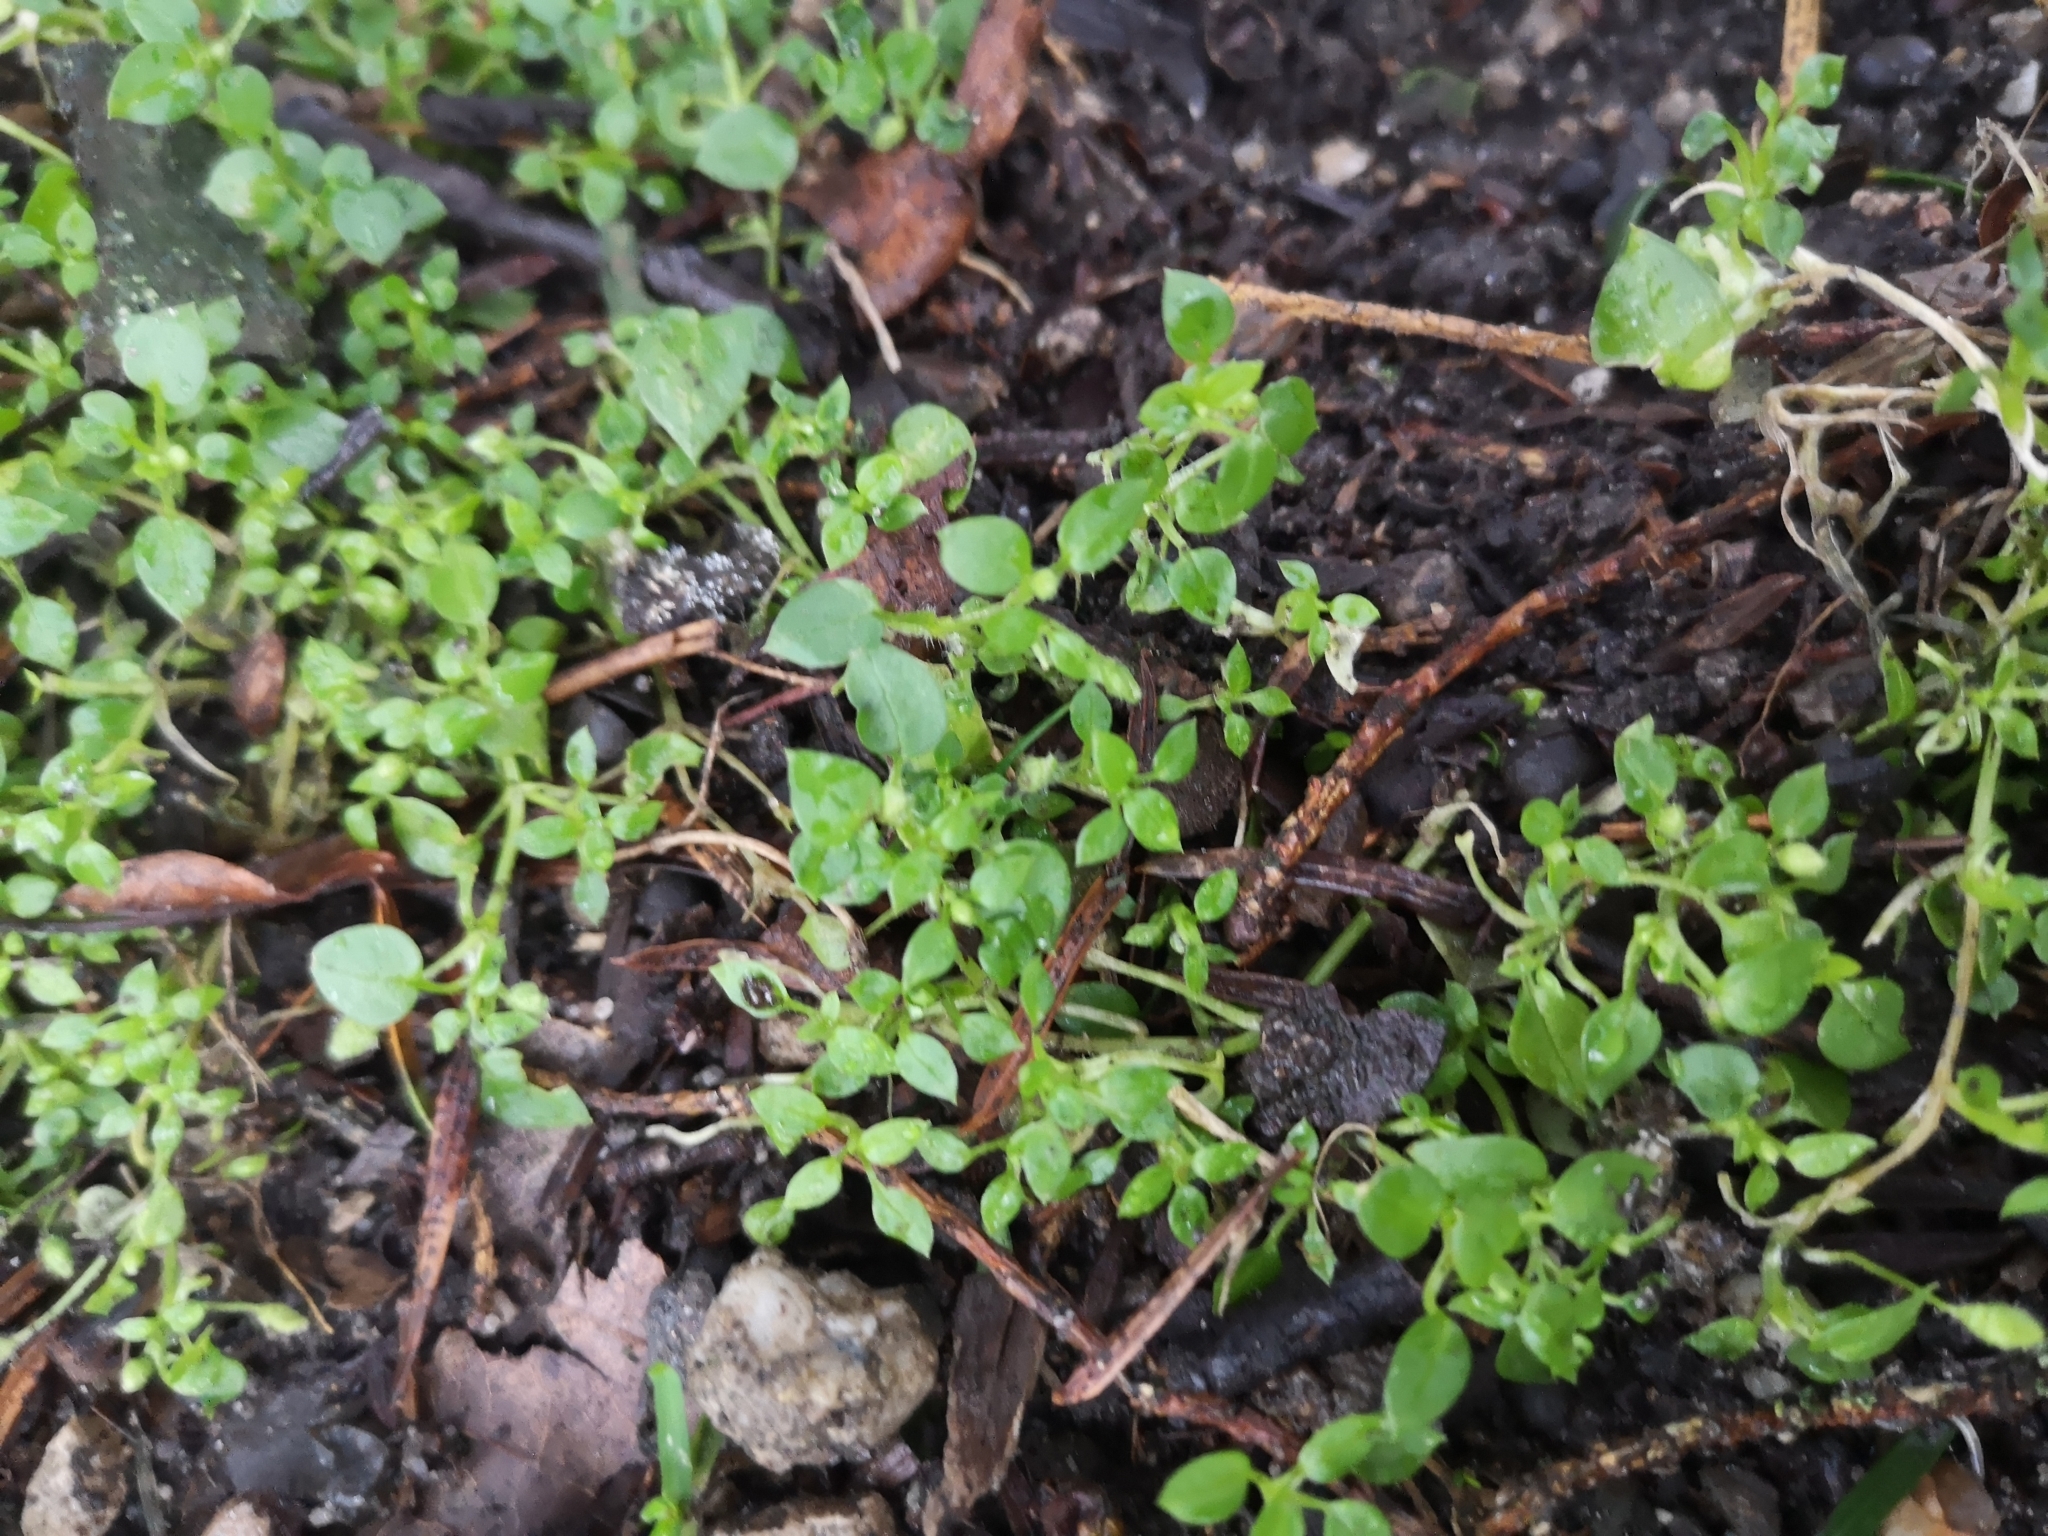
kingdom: Plantae
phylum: Tracheophyta
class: Magnoliopsida
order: Caryophyllales
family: Caryophyllaceae
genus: Stellaria
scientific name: Stellaria media
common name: Common chickweed
